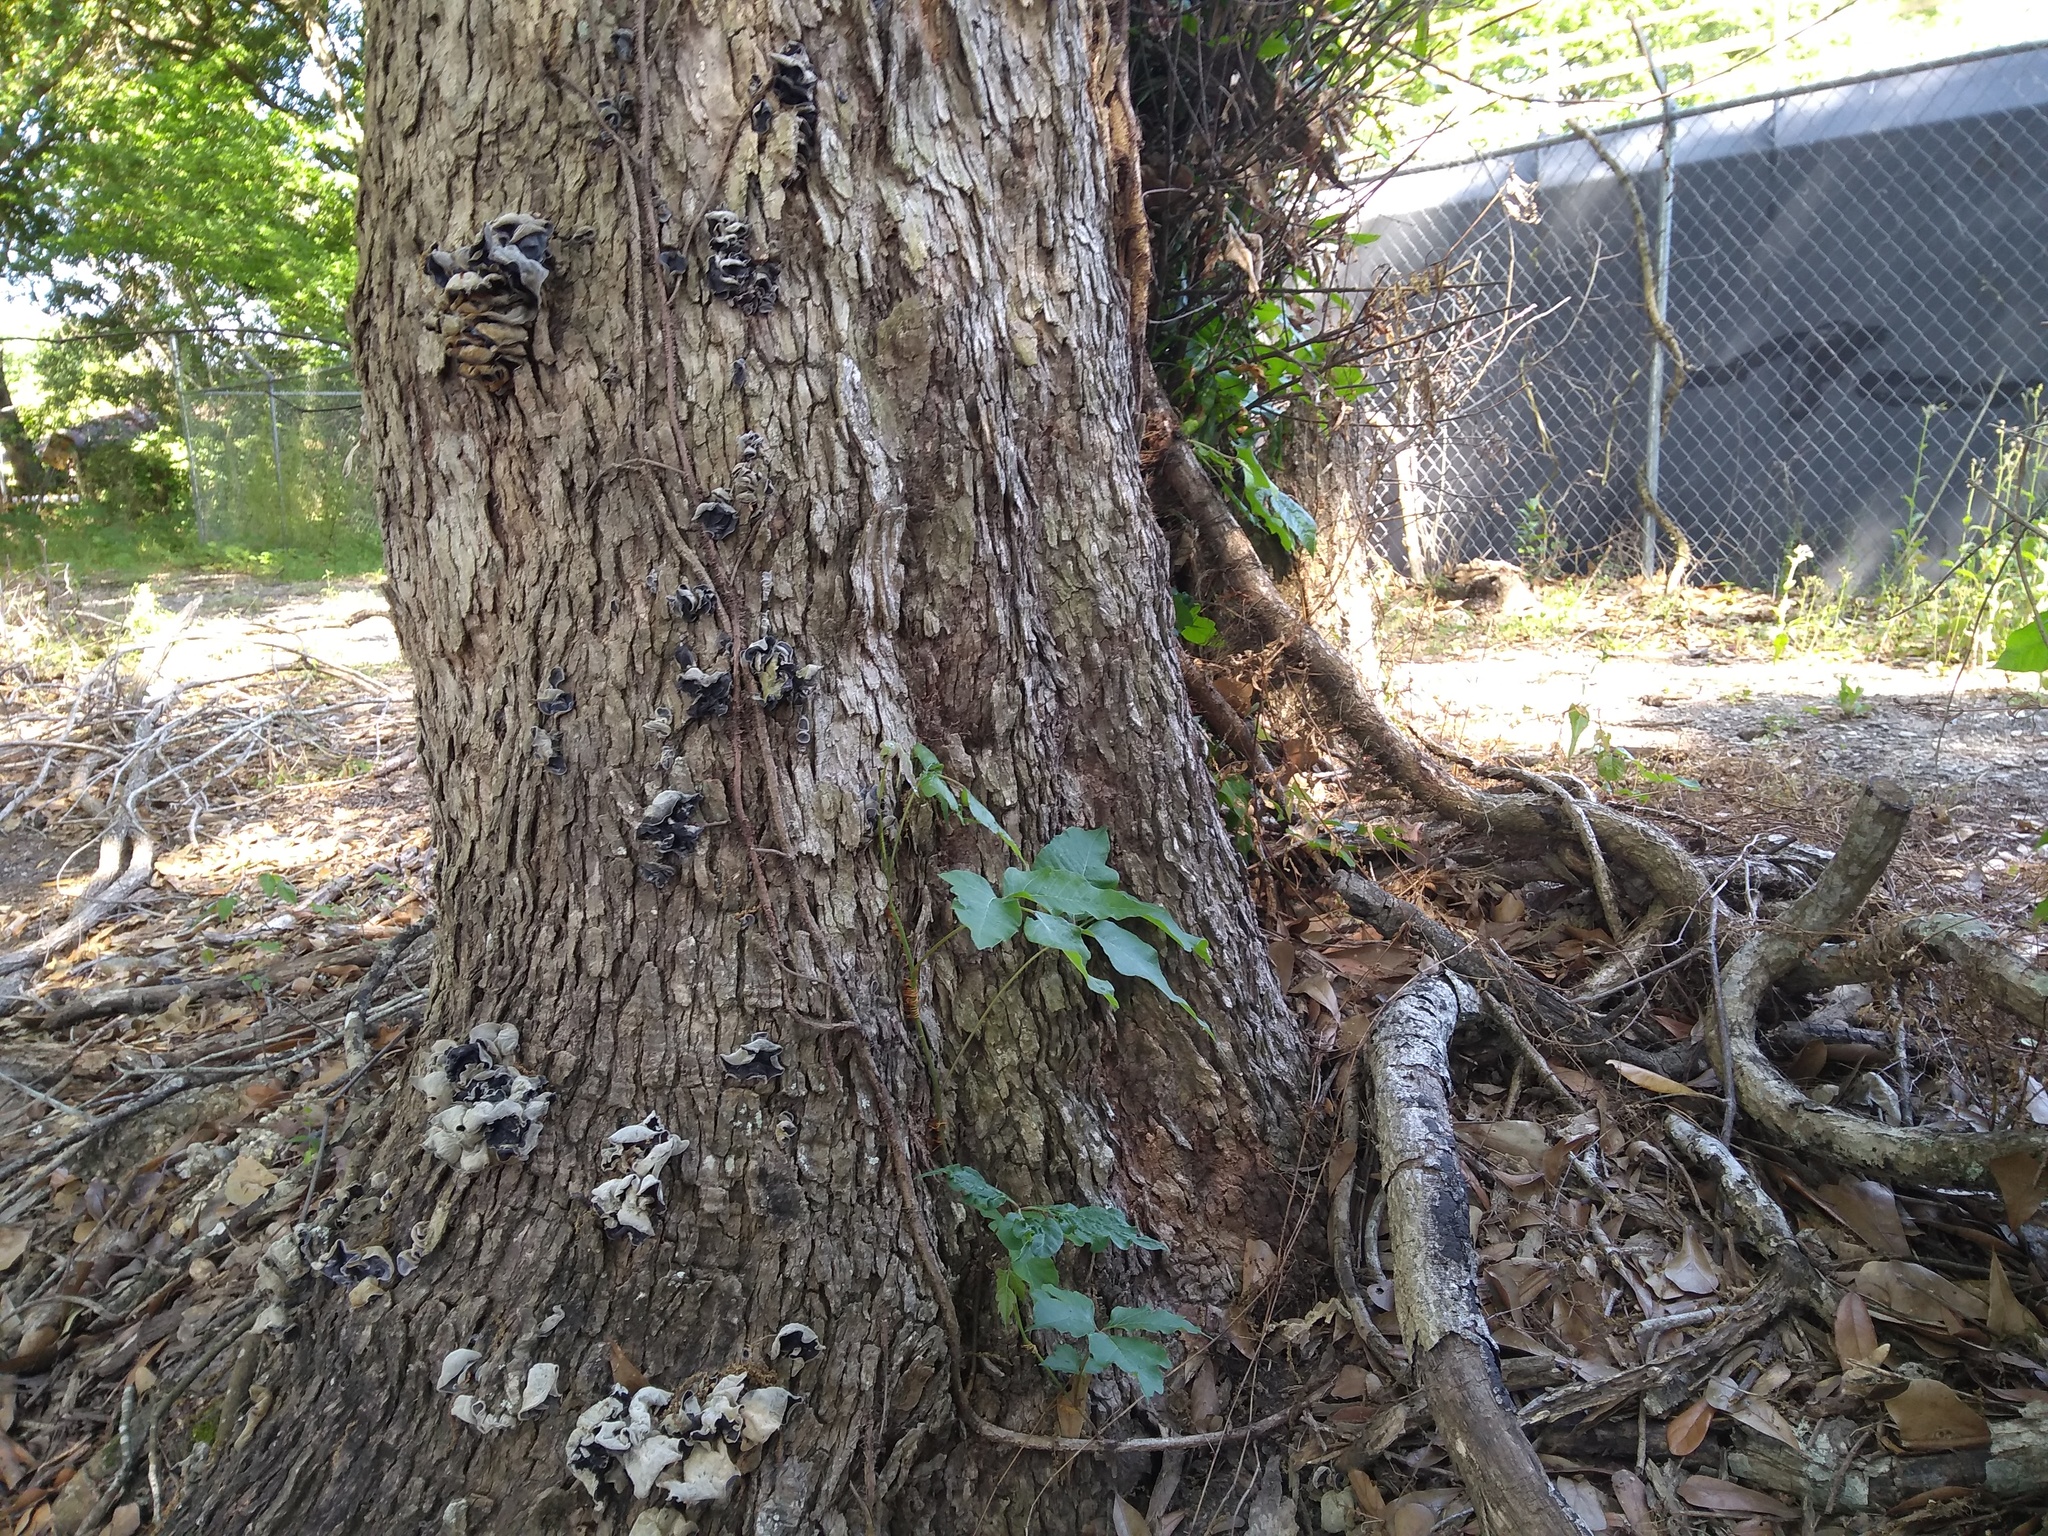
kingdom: Plantae
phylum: Tracheophyta
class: Magnoliopsida
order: Sapindales
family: Anacardiaceae
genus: Toxicodendron
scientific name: Toxicodendron radicans
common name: Poison ivy
